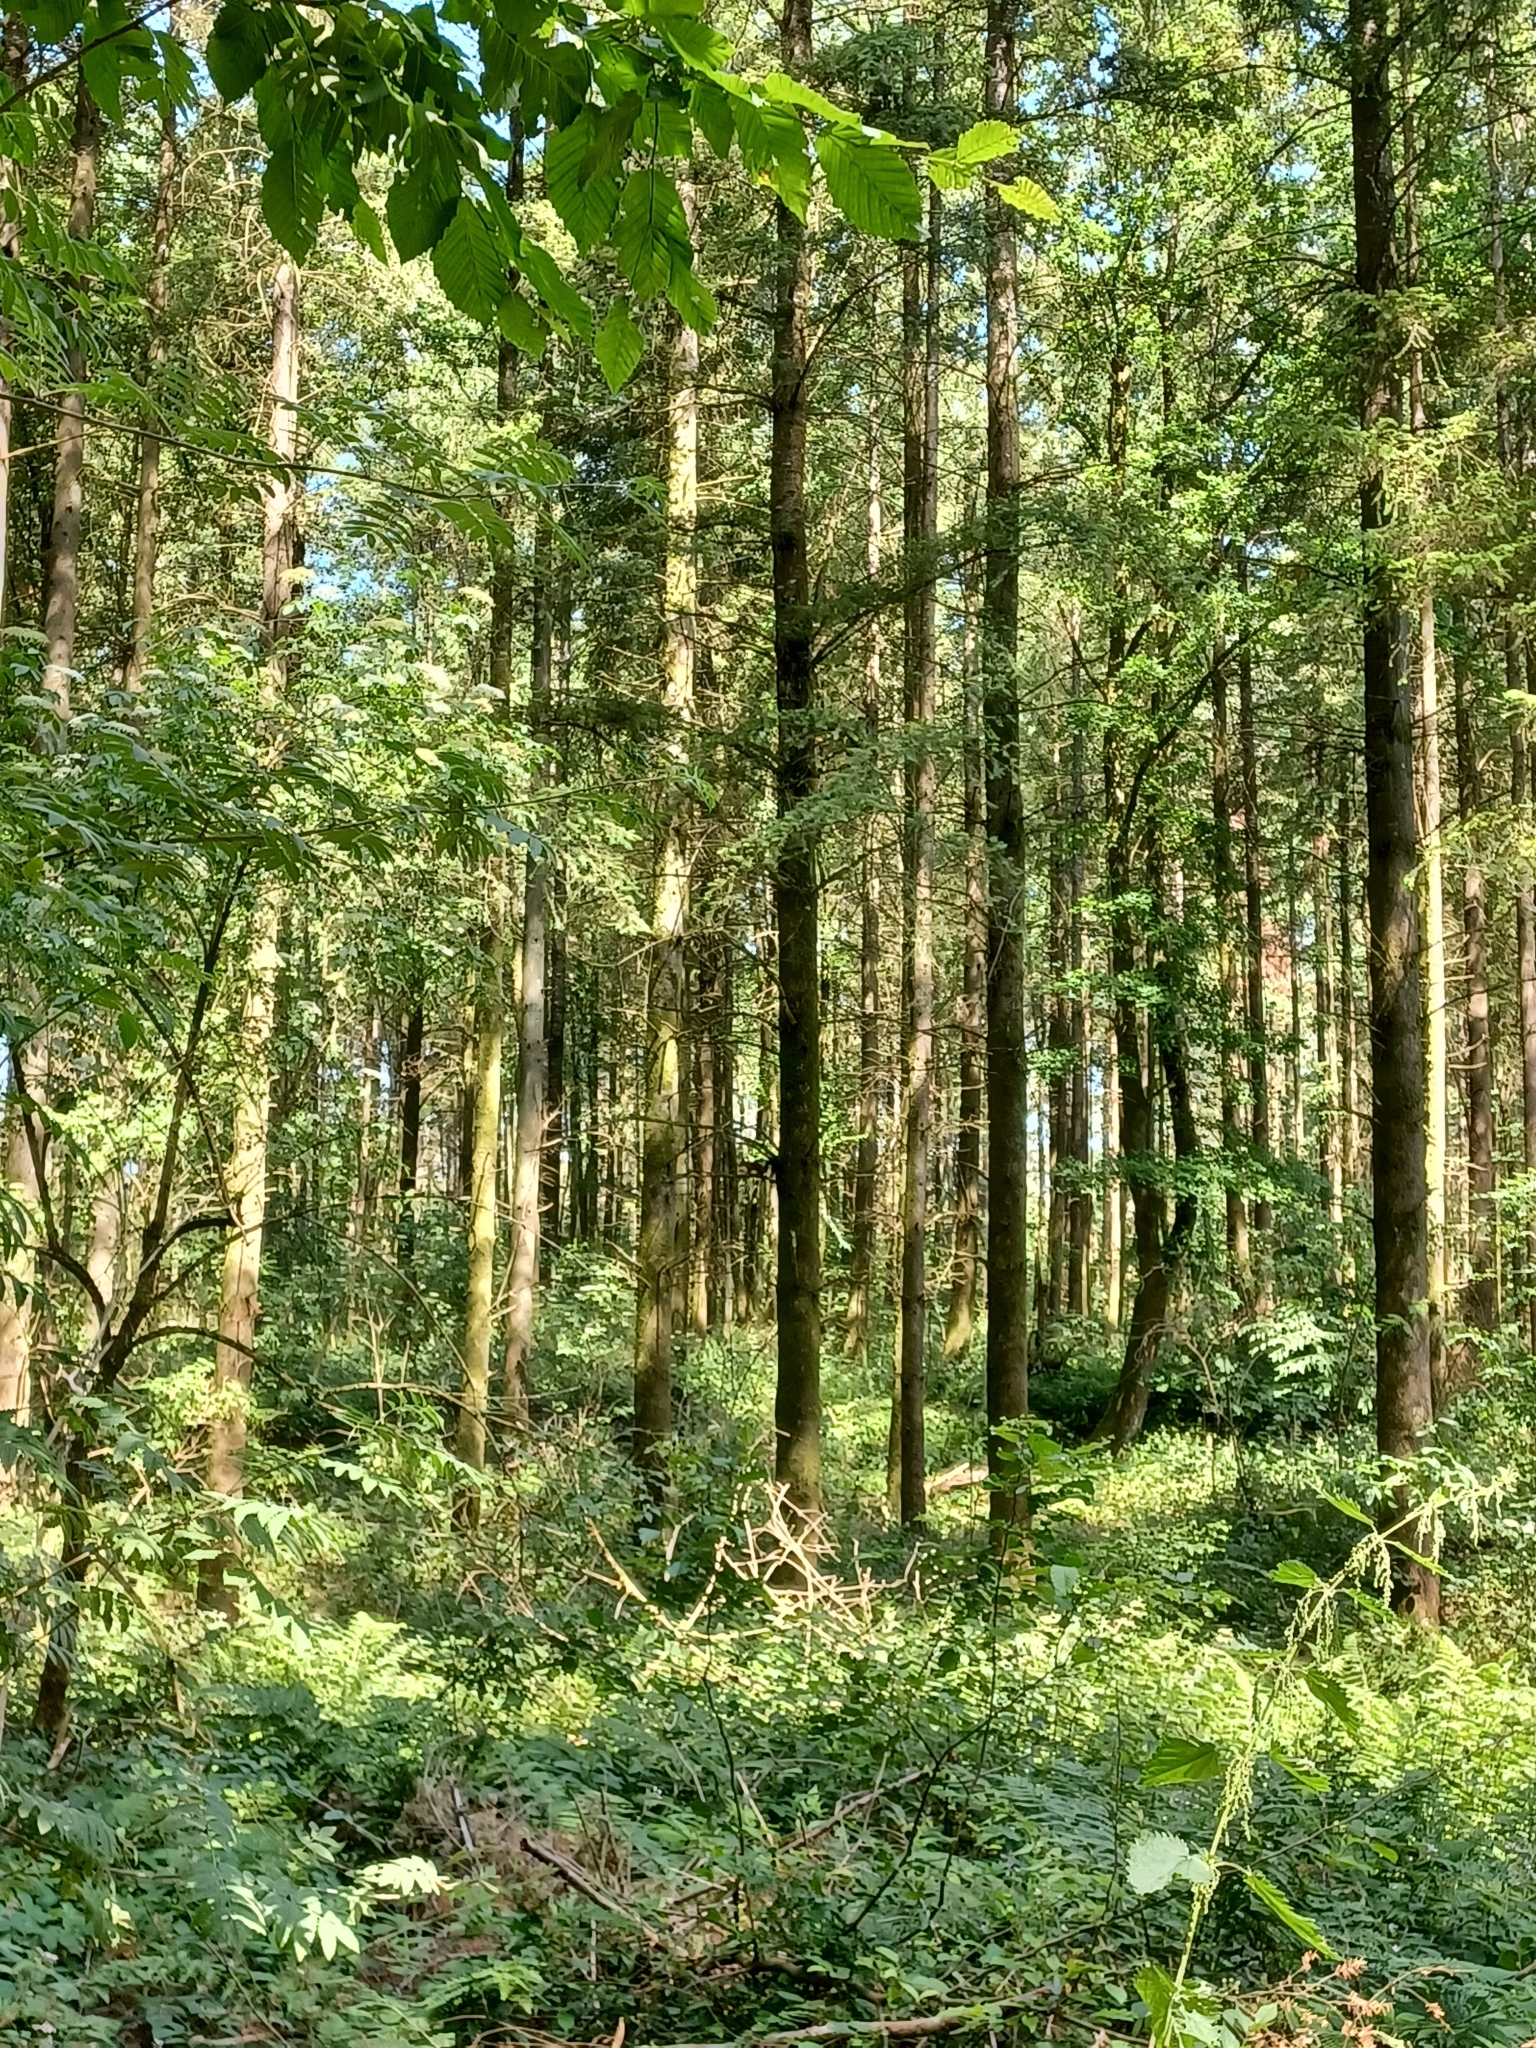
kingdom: Animalia
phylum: Chordata
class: Mammalia
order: Rodentia
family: Sciuridae
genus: Sciurus
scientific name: Sciurus vulgaris
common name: Eurasian red squirrel
